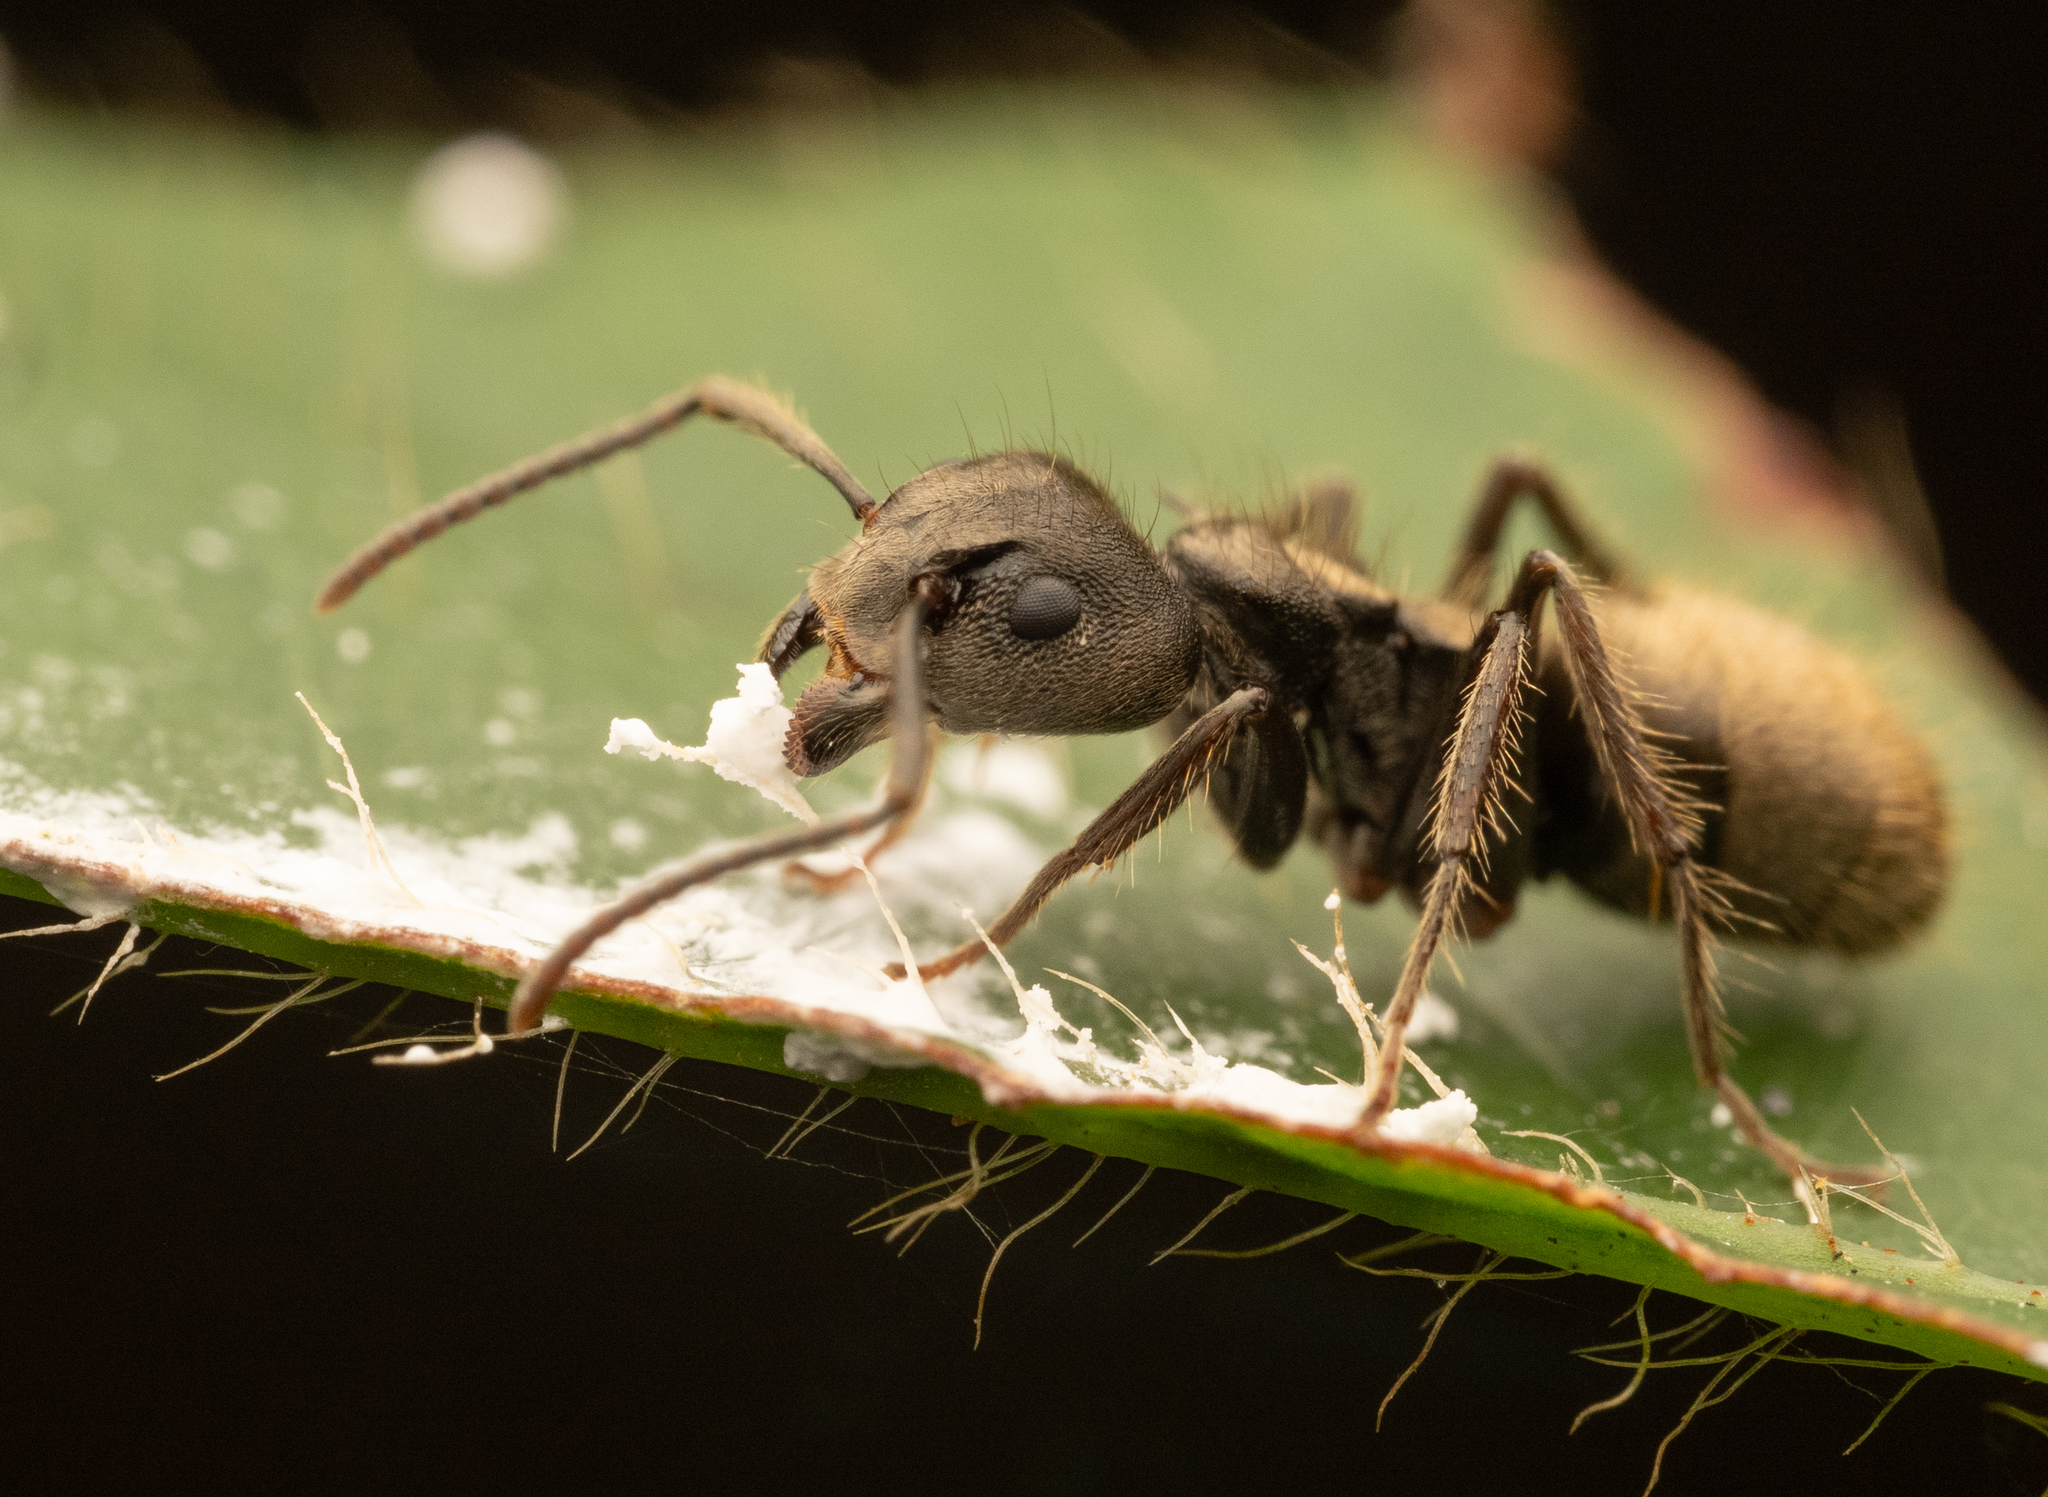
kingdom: Animalia
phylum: Arthropoda
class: Insecta
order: Hymenoptera
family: Formicidae
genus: Dolichoderus
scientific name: Dolichoderus bispinosus
